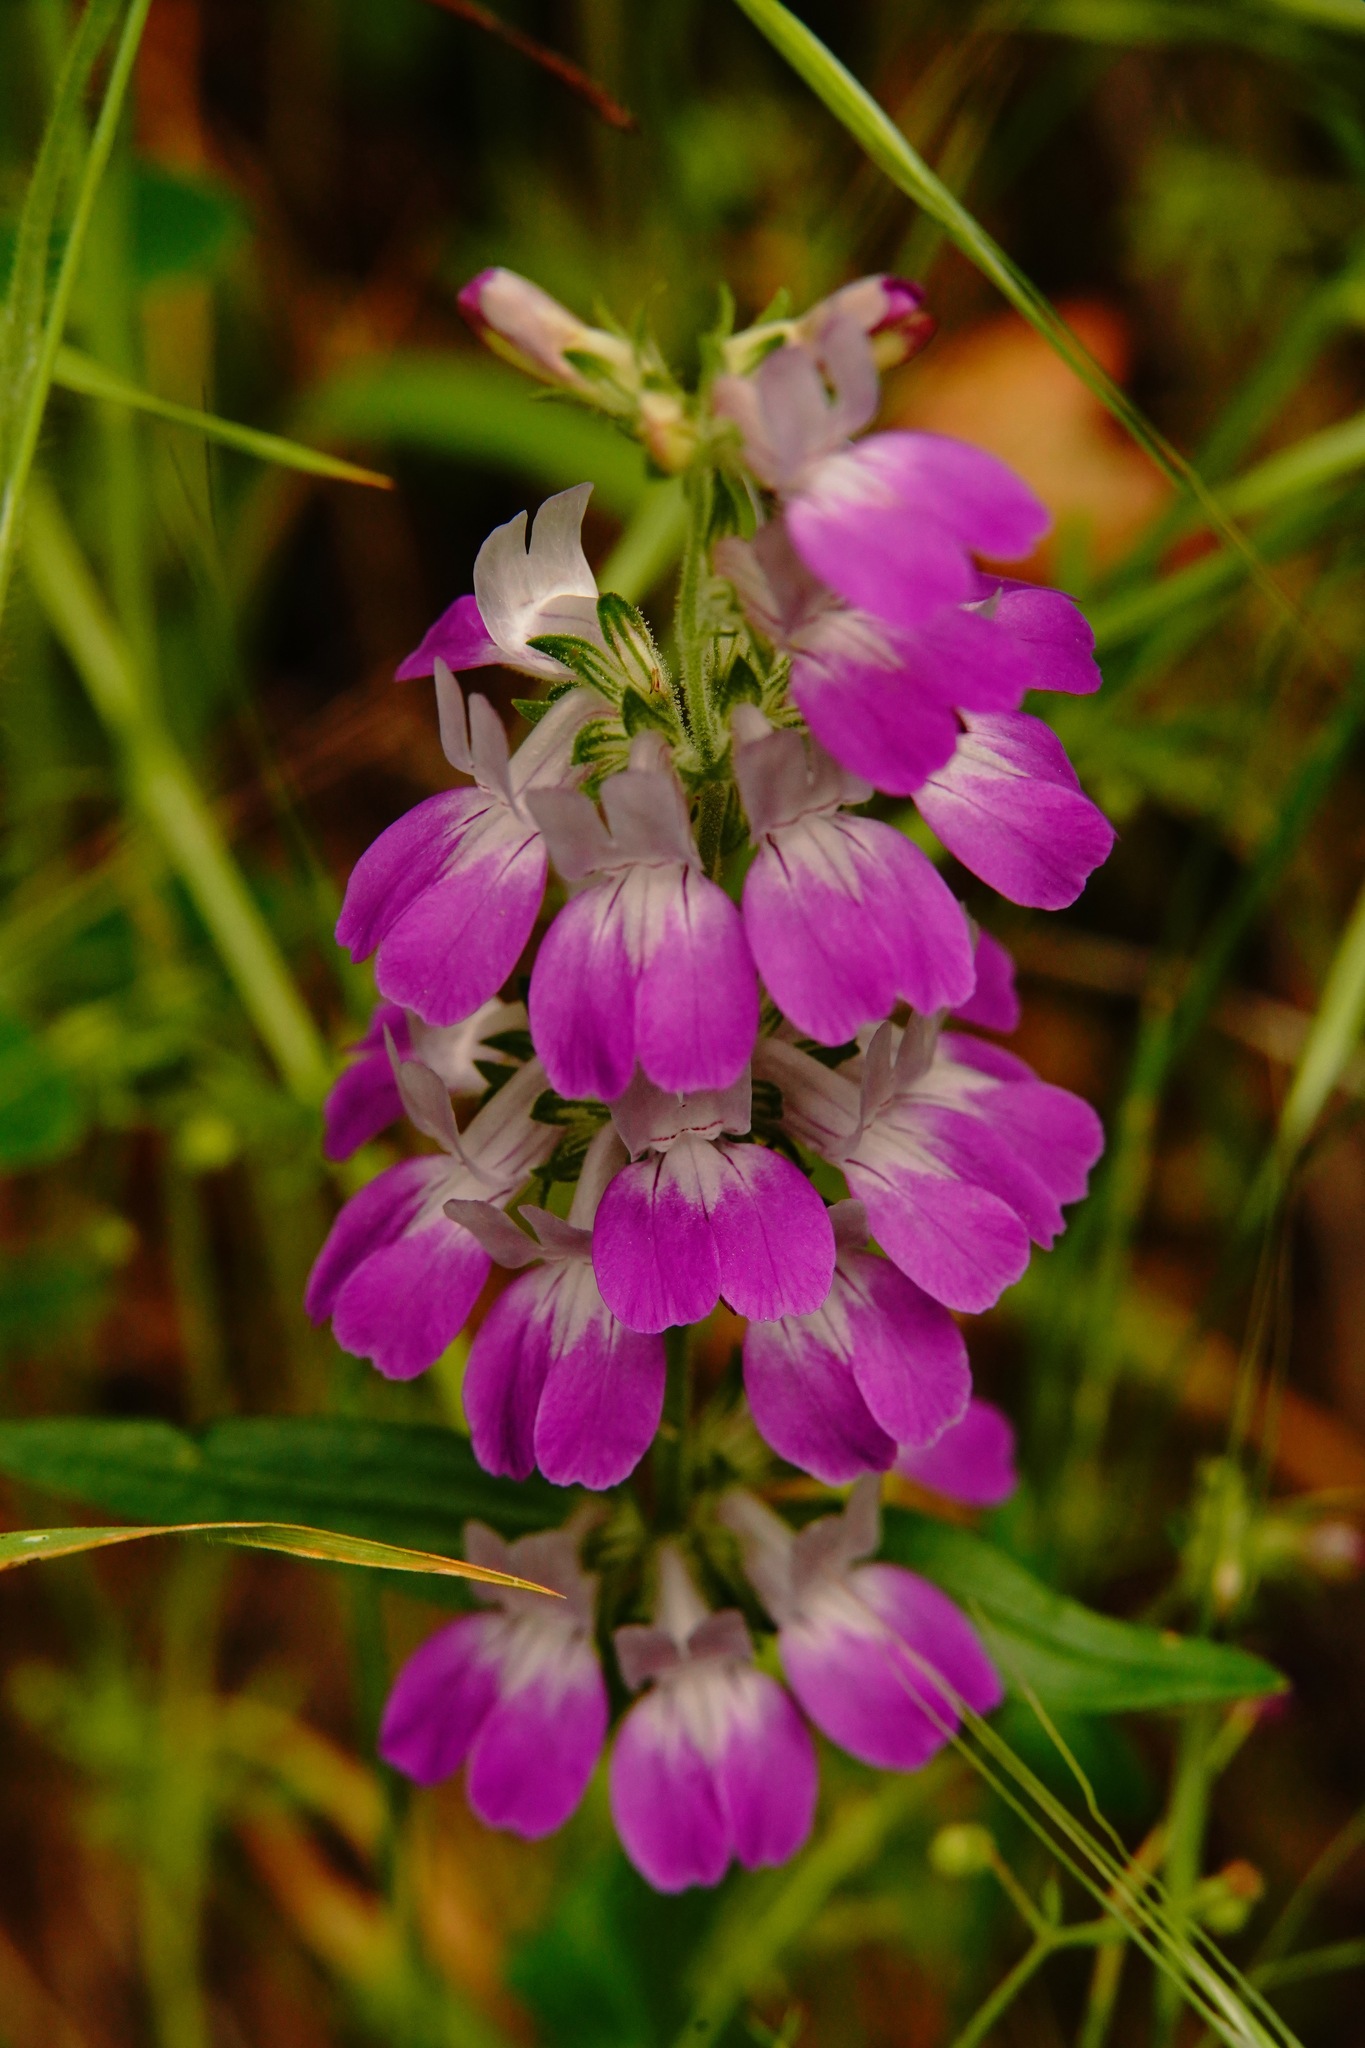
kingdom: Plantae
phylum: Tracheophyta
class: Magnoliopsida
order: Lamiales
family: Plantaginaceae
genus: Collinsia
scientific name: Collinsia heterophylla
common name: Chinese-houses
